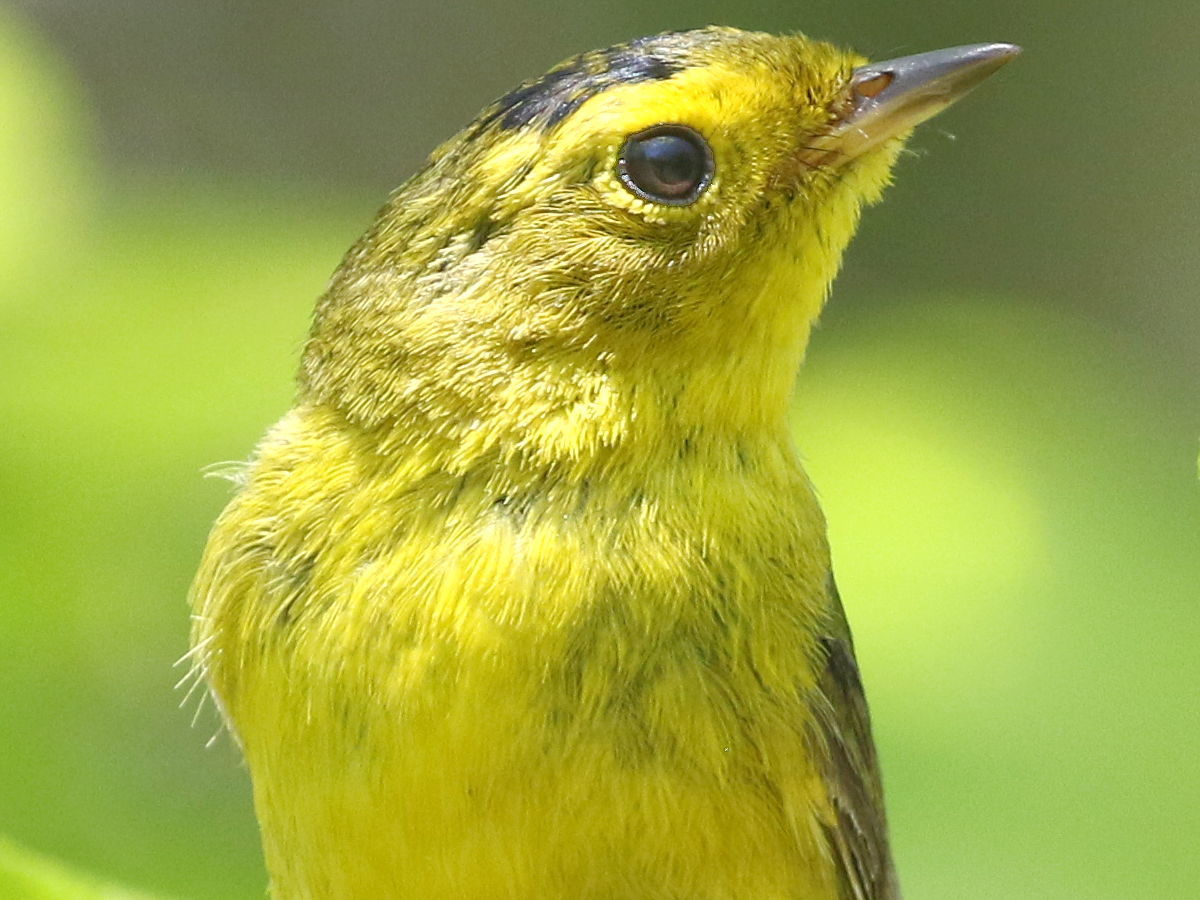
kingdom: Animalia
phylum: Chordata
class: Aves
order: Passeriformes
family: Parulidae
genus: Cardellina
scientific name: Cardellina pusilla
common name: Wilson's warbler
